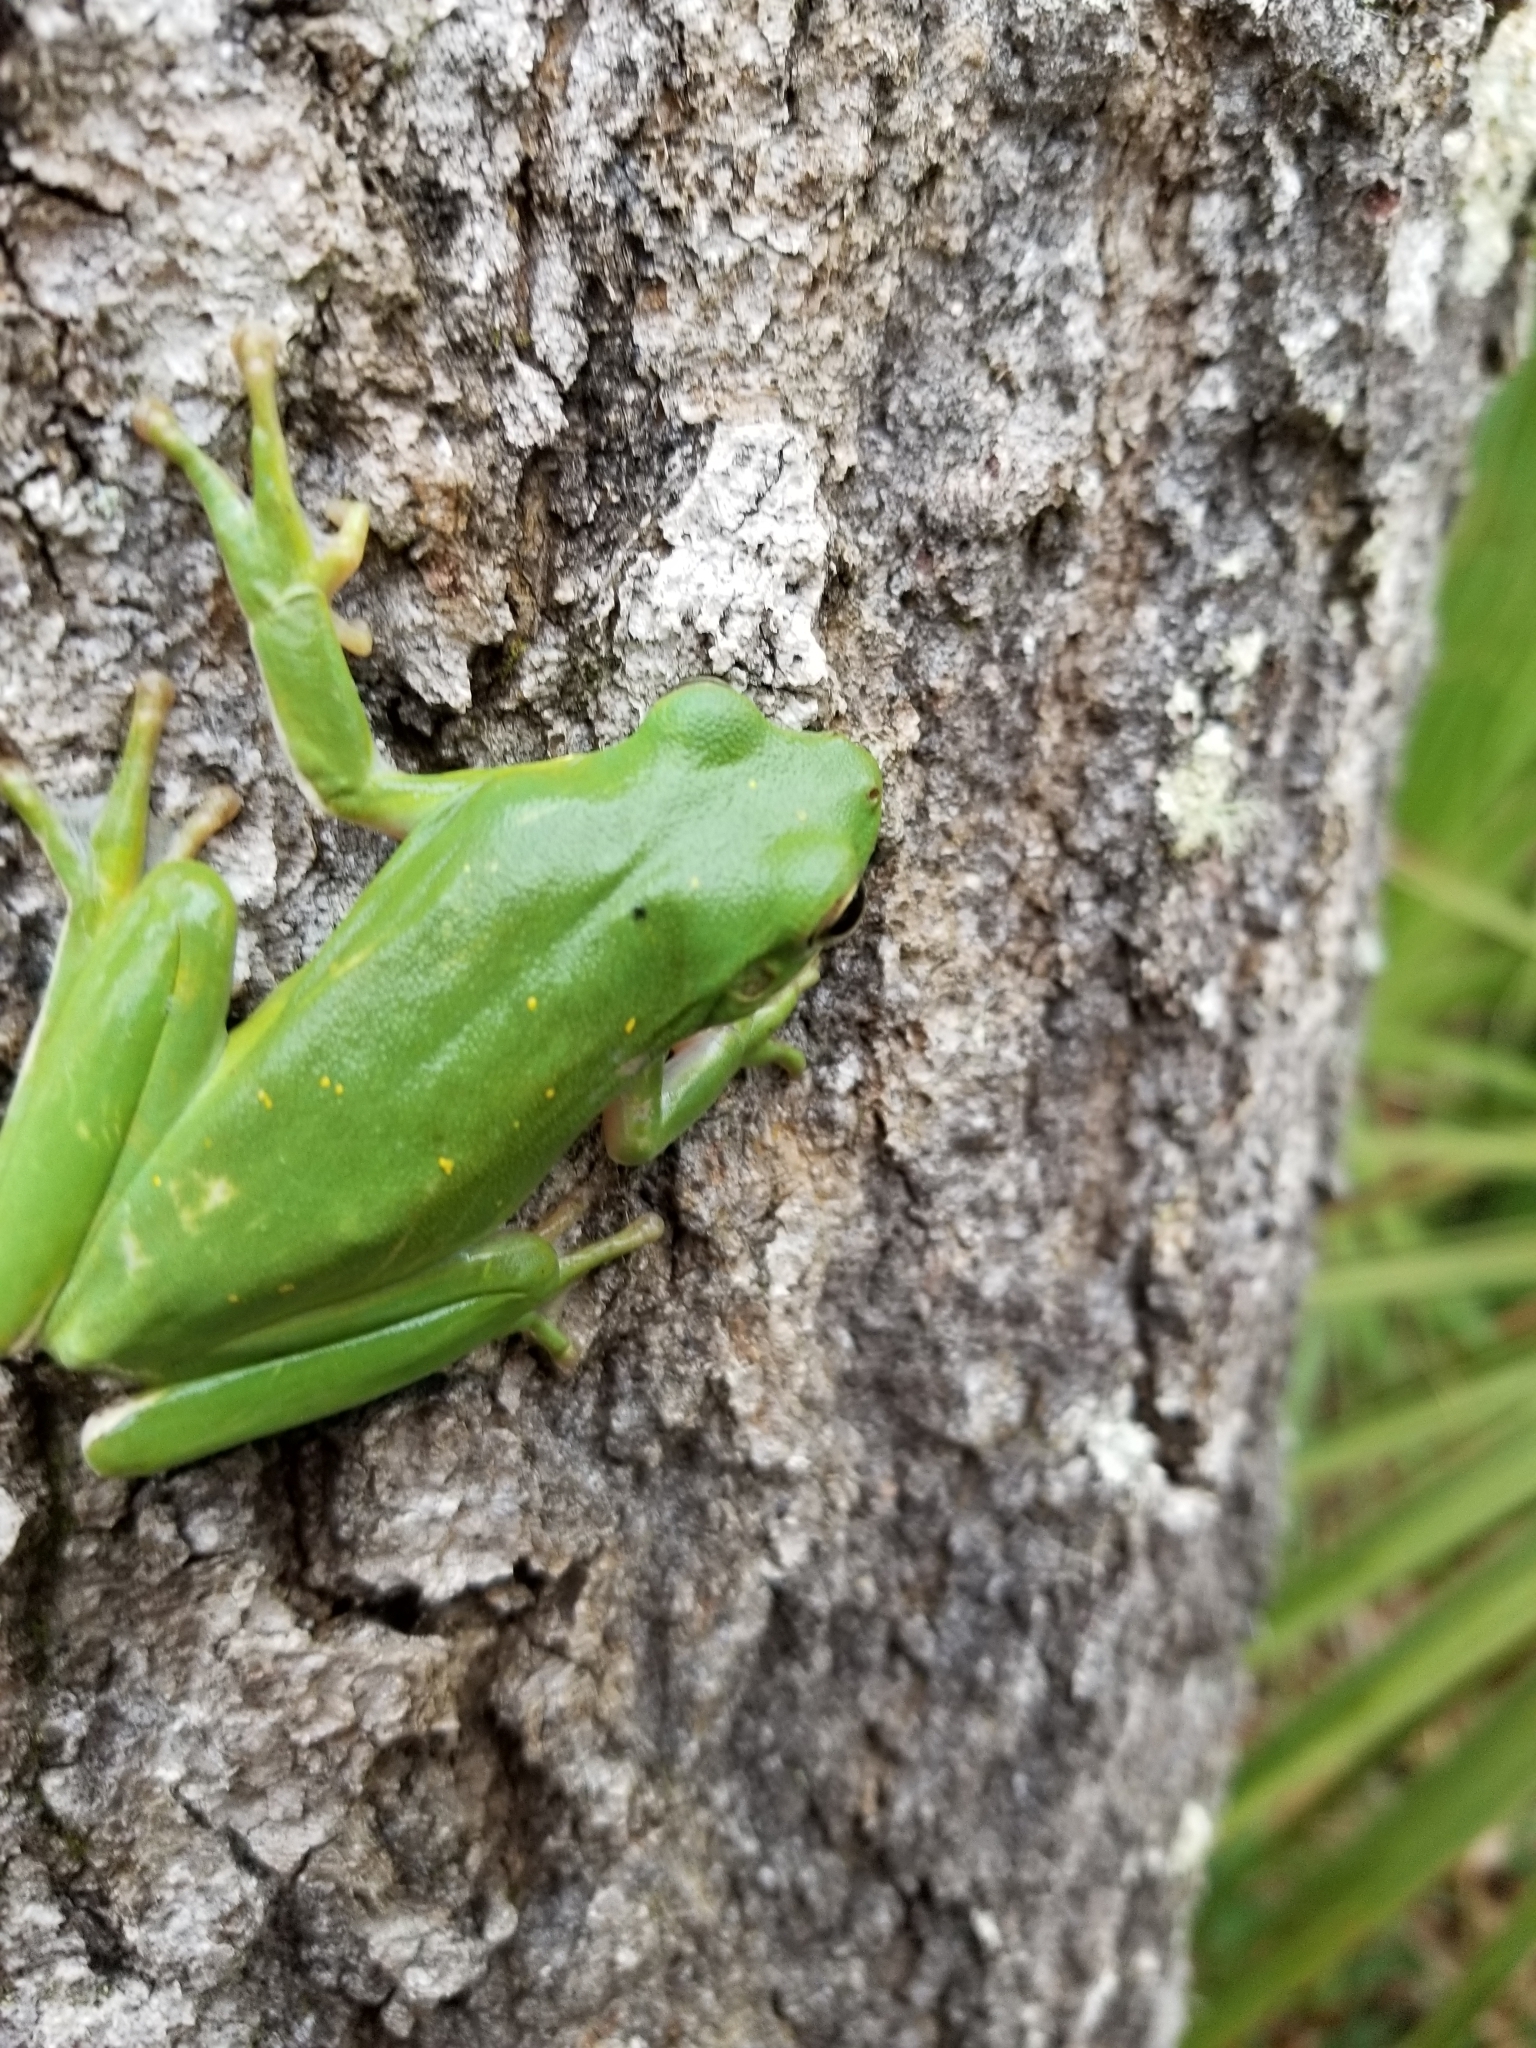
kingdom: Animalia
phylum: Chordata
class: Amphibia
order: Anura
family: Hylidae
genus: Dryophytes
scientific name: Dryophytes cinereus
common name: Green treefrog
